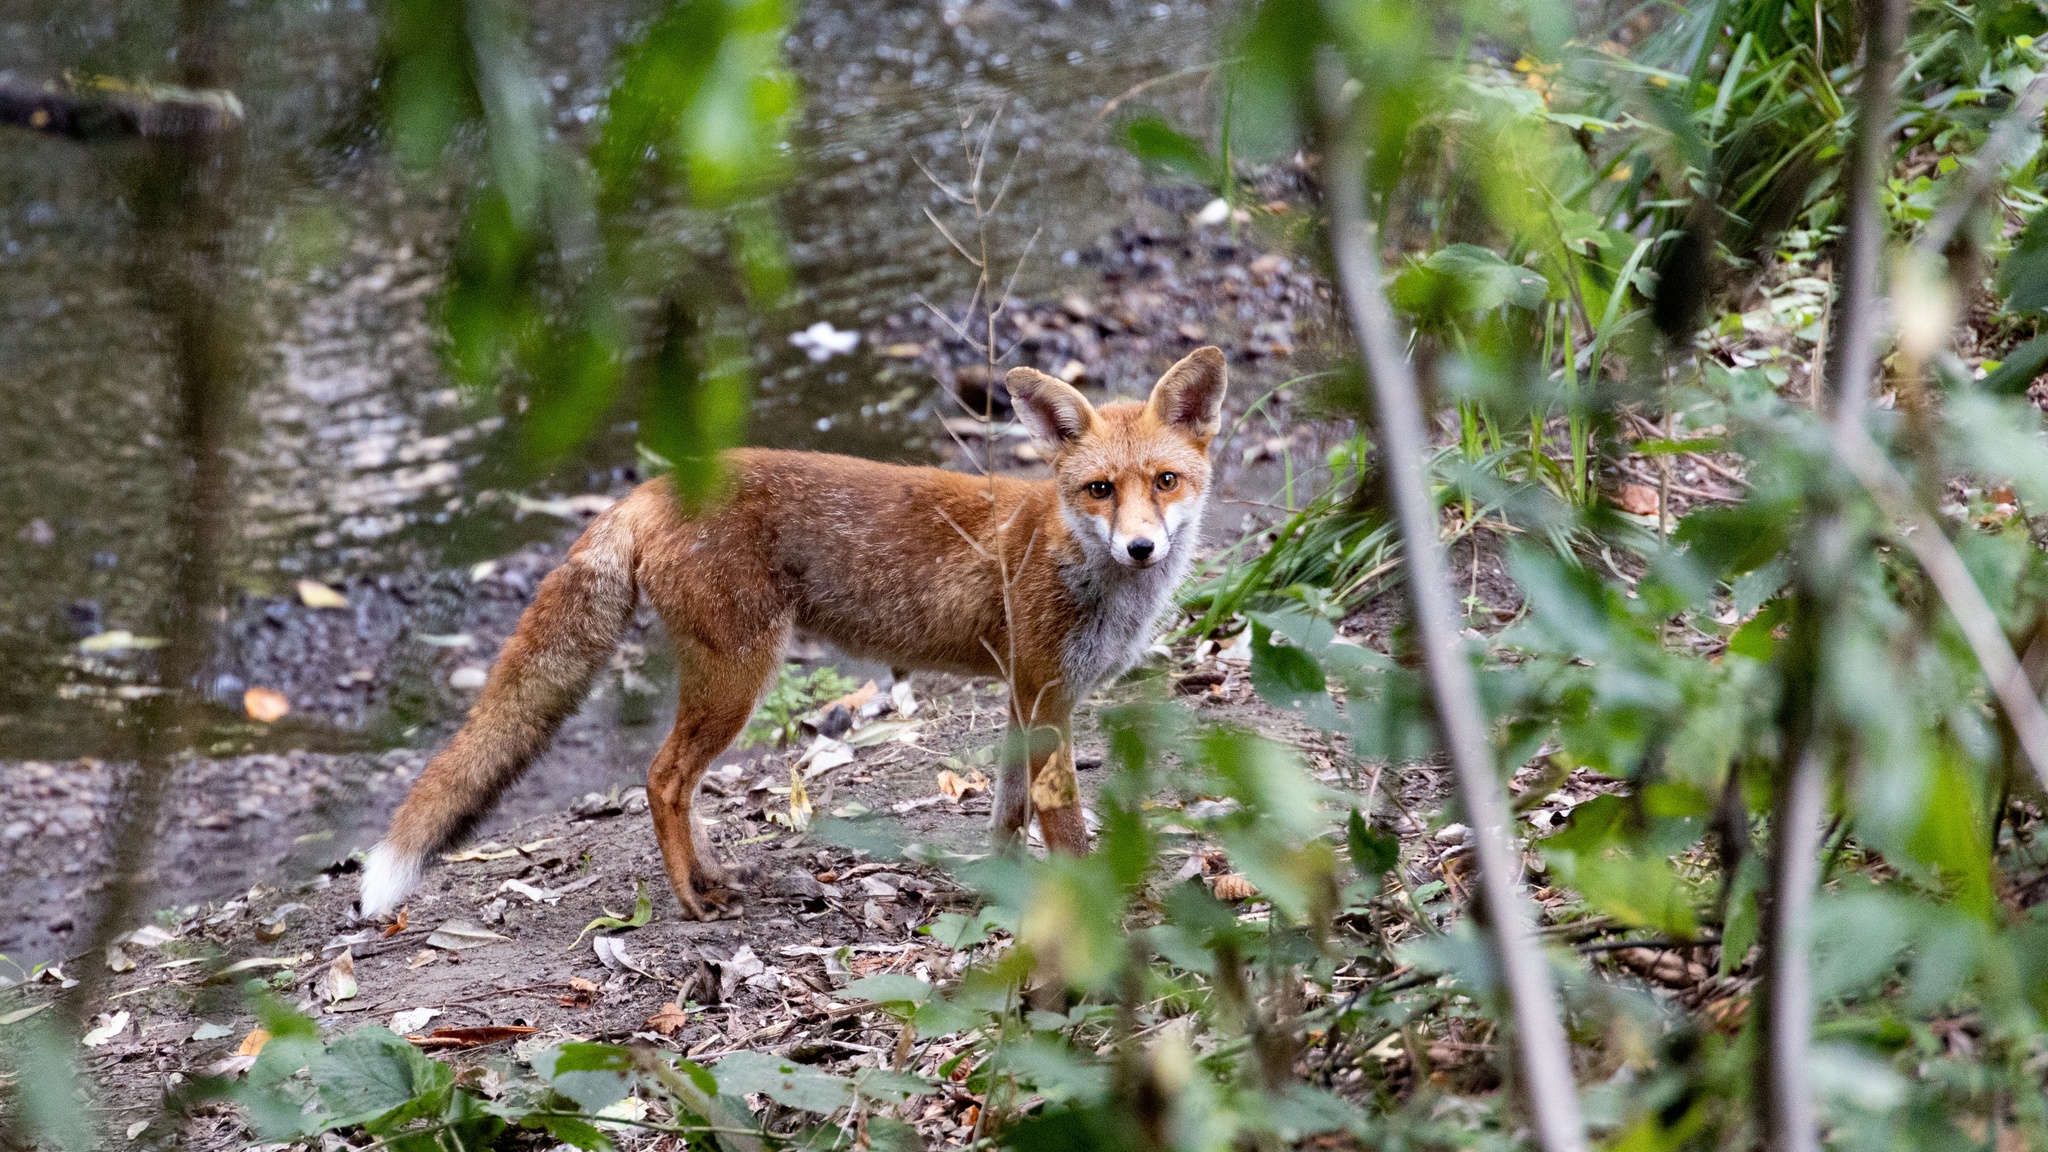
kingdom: Animalia
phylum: Chordata
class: Mammalia
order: Carnivora
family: Canidae
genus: Vulpes
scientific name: Vulpes vulpes
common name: Red fox
